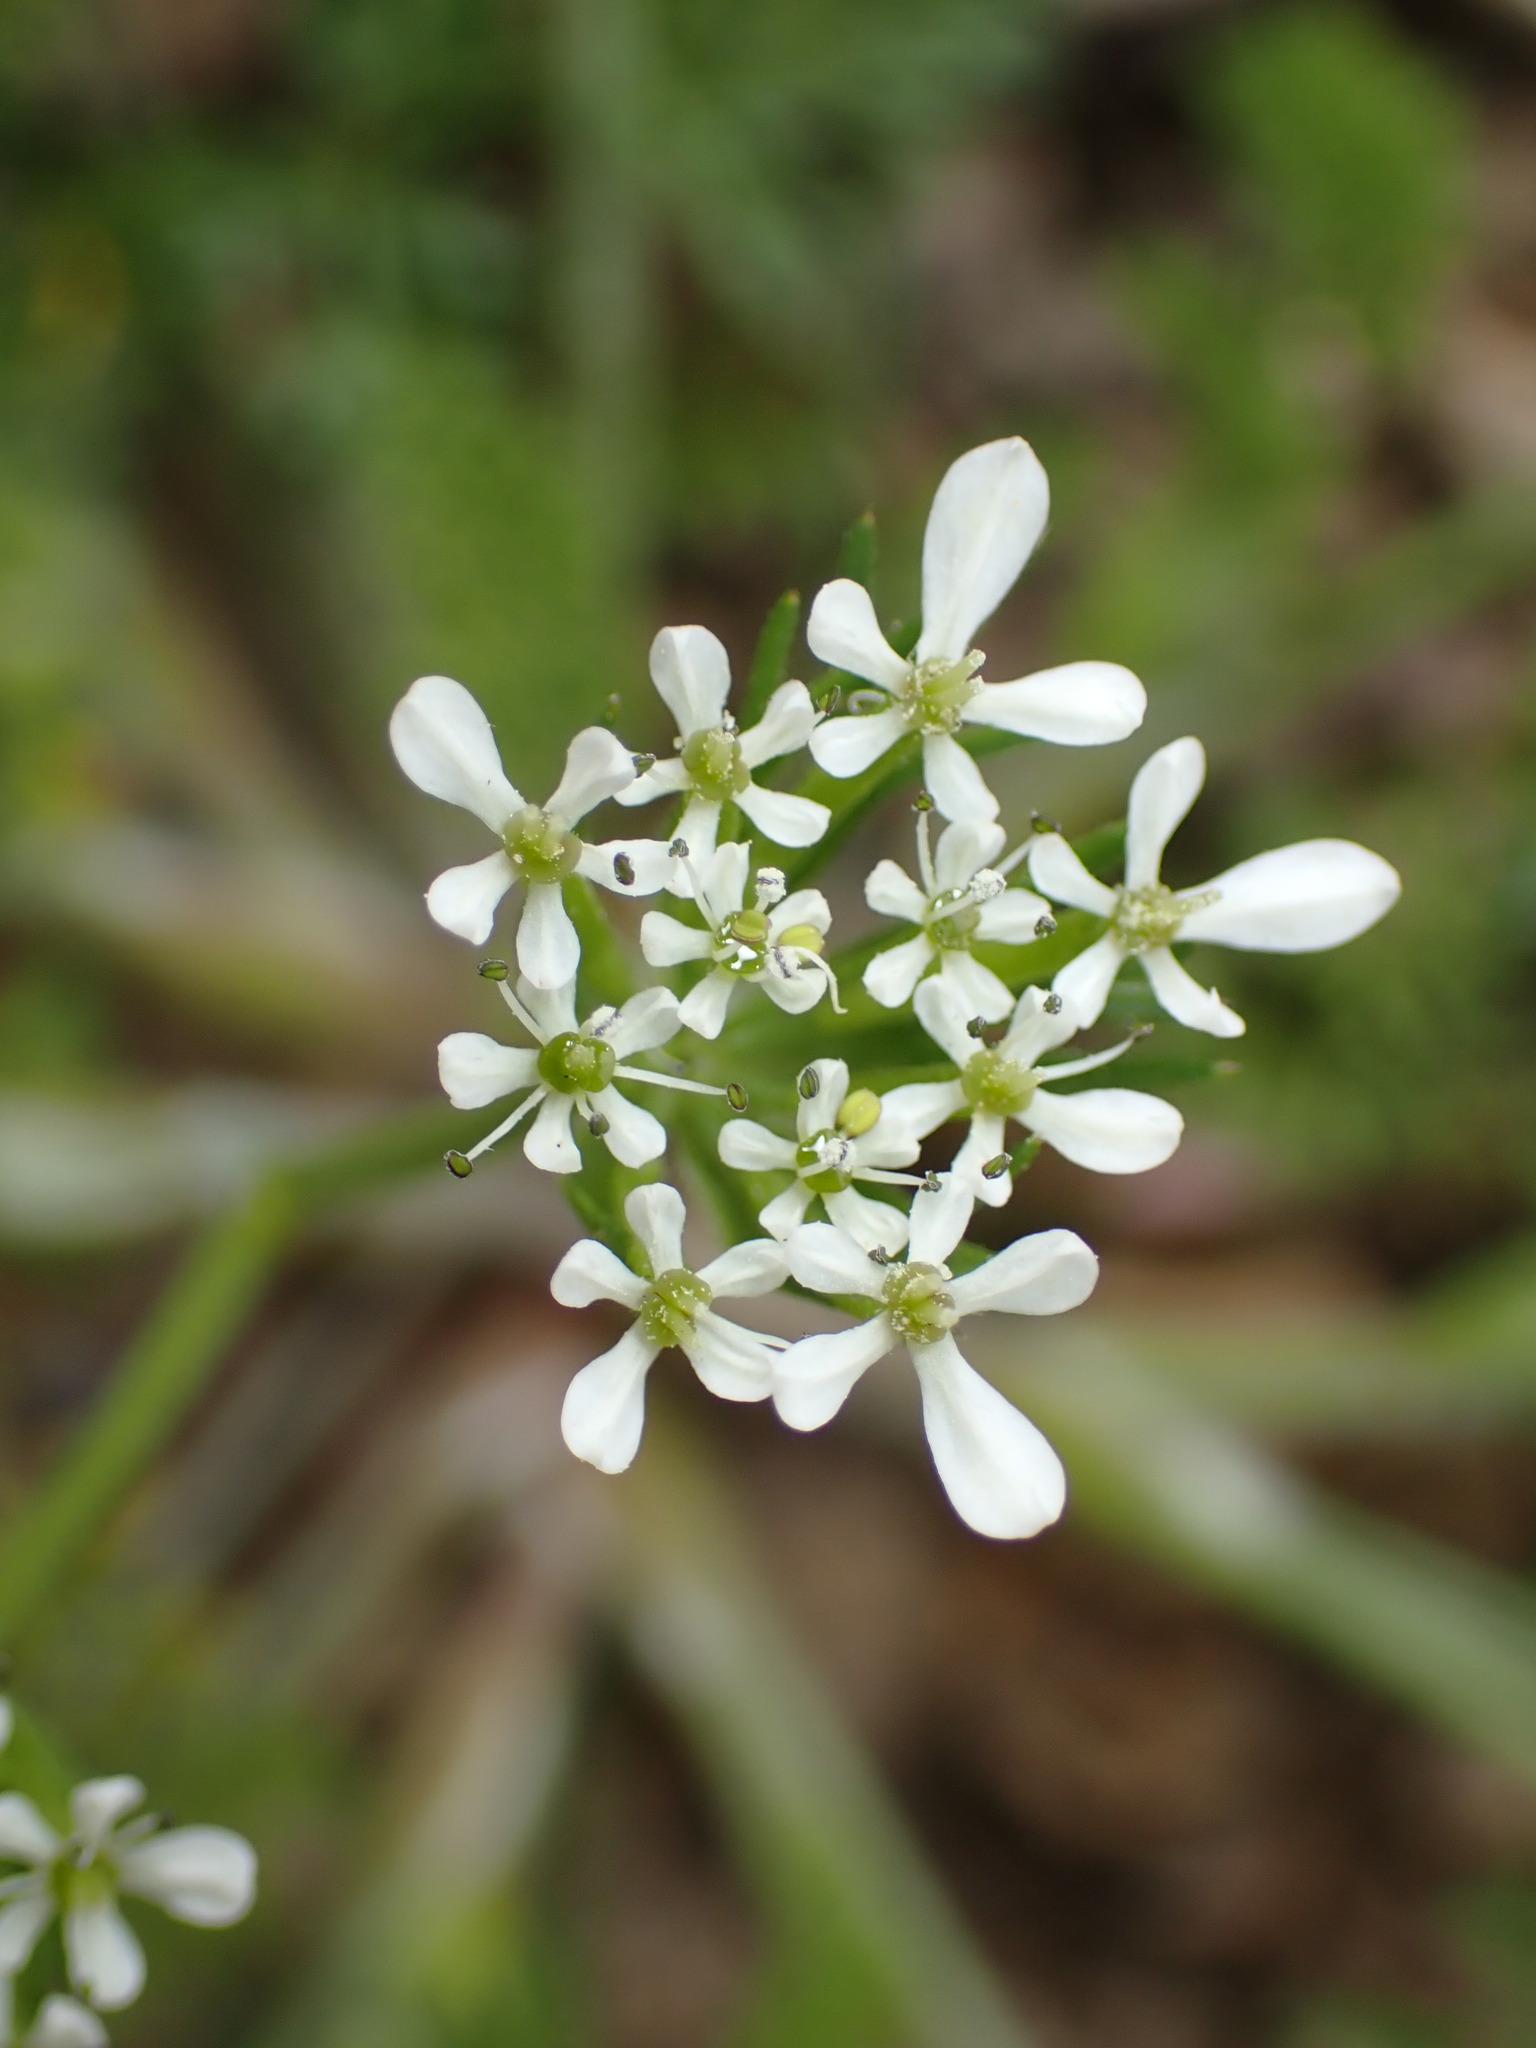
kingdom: Plantae
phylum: Tracheophyta
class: Magnoliopsida
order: Apiales
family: Apiaceae
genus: Scandix
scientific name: Scandix pecten-veneris
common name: Shepherd's-needle
